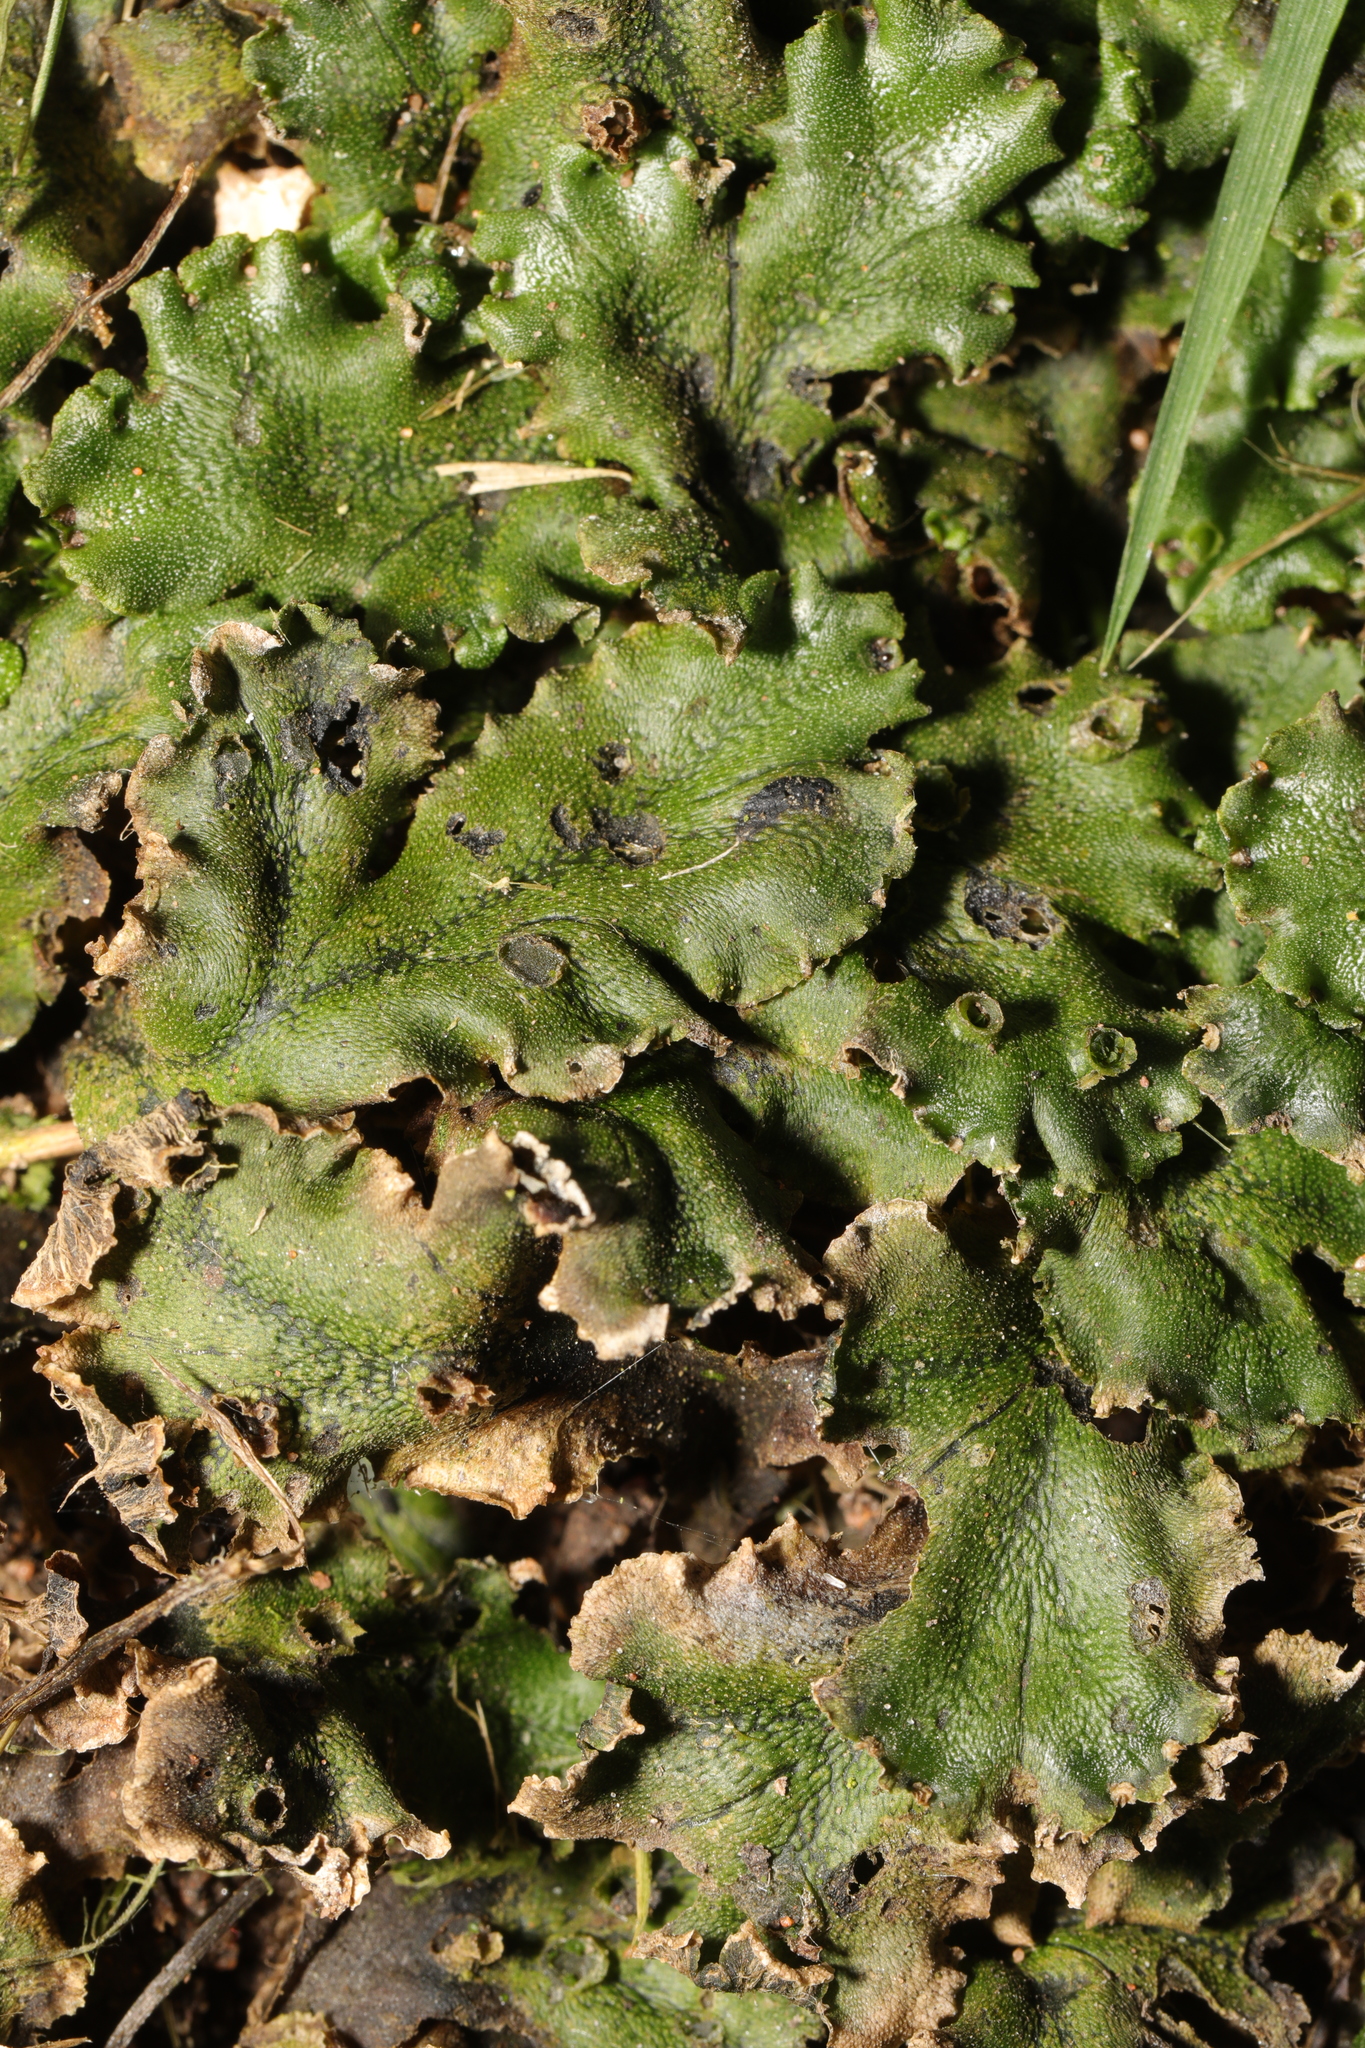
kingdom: Plantae
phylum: Marchantiophyta
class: Marchantiopsida
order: Marchantiales
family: Marchantiaceae
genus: Marchantia
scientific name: Marchantia polymorpha
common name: Common liverwort
